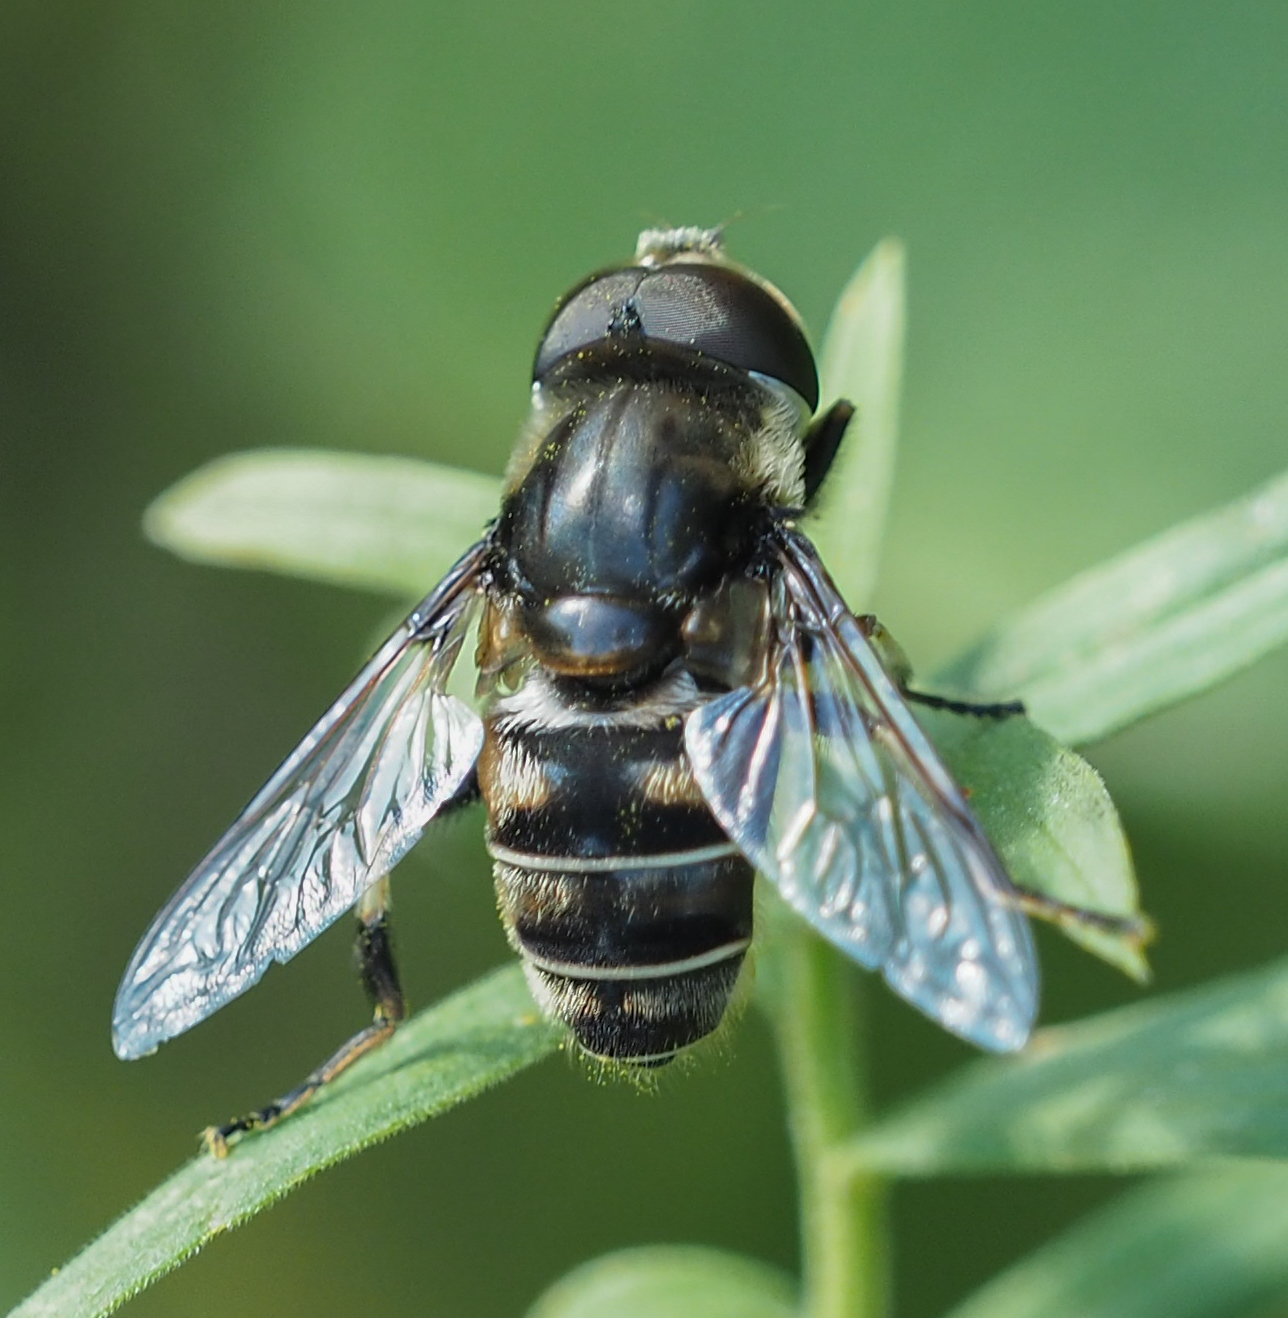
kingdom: Animalia
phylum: Arthropoda
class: Insecta
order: Diptera
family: Syrphidae
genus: Eristalis
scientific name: Eristalis dimidiata
